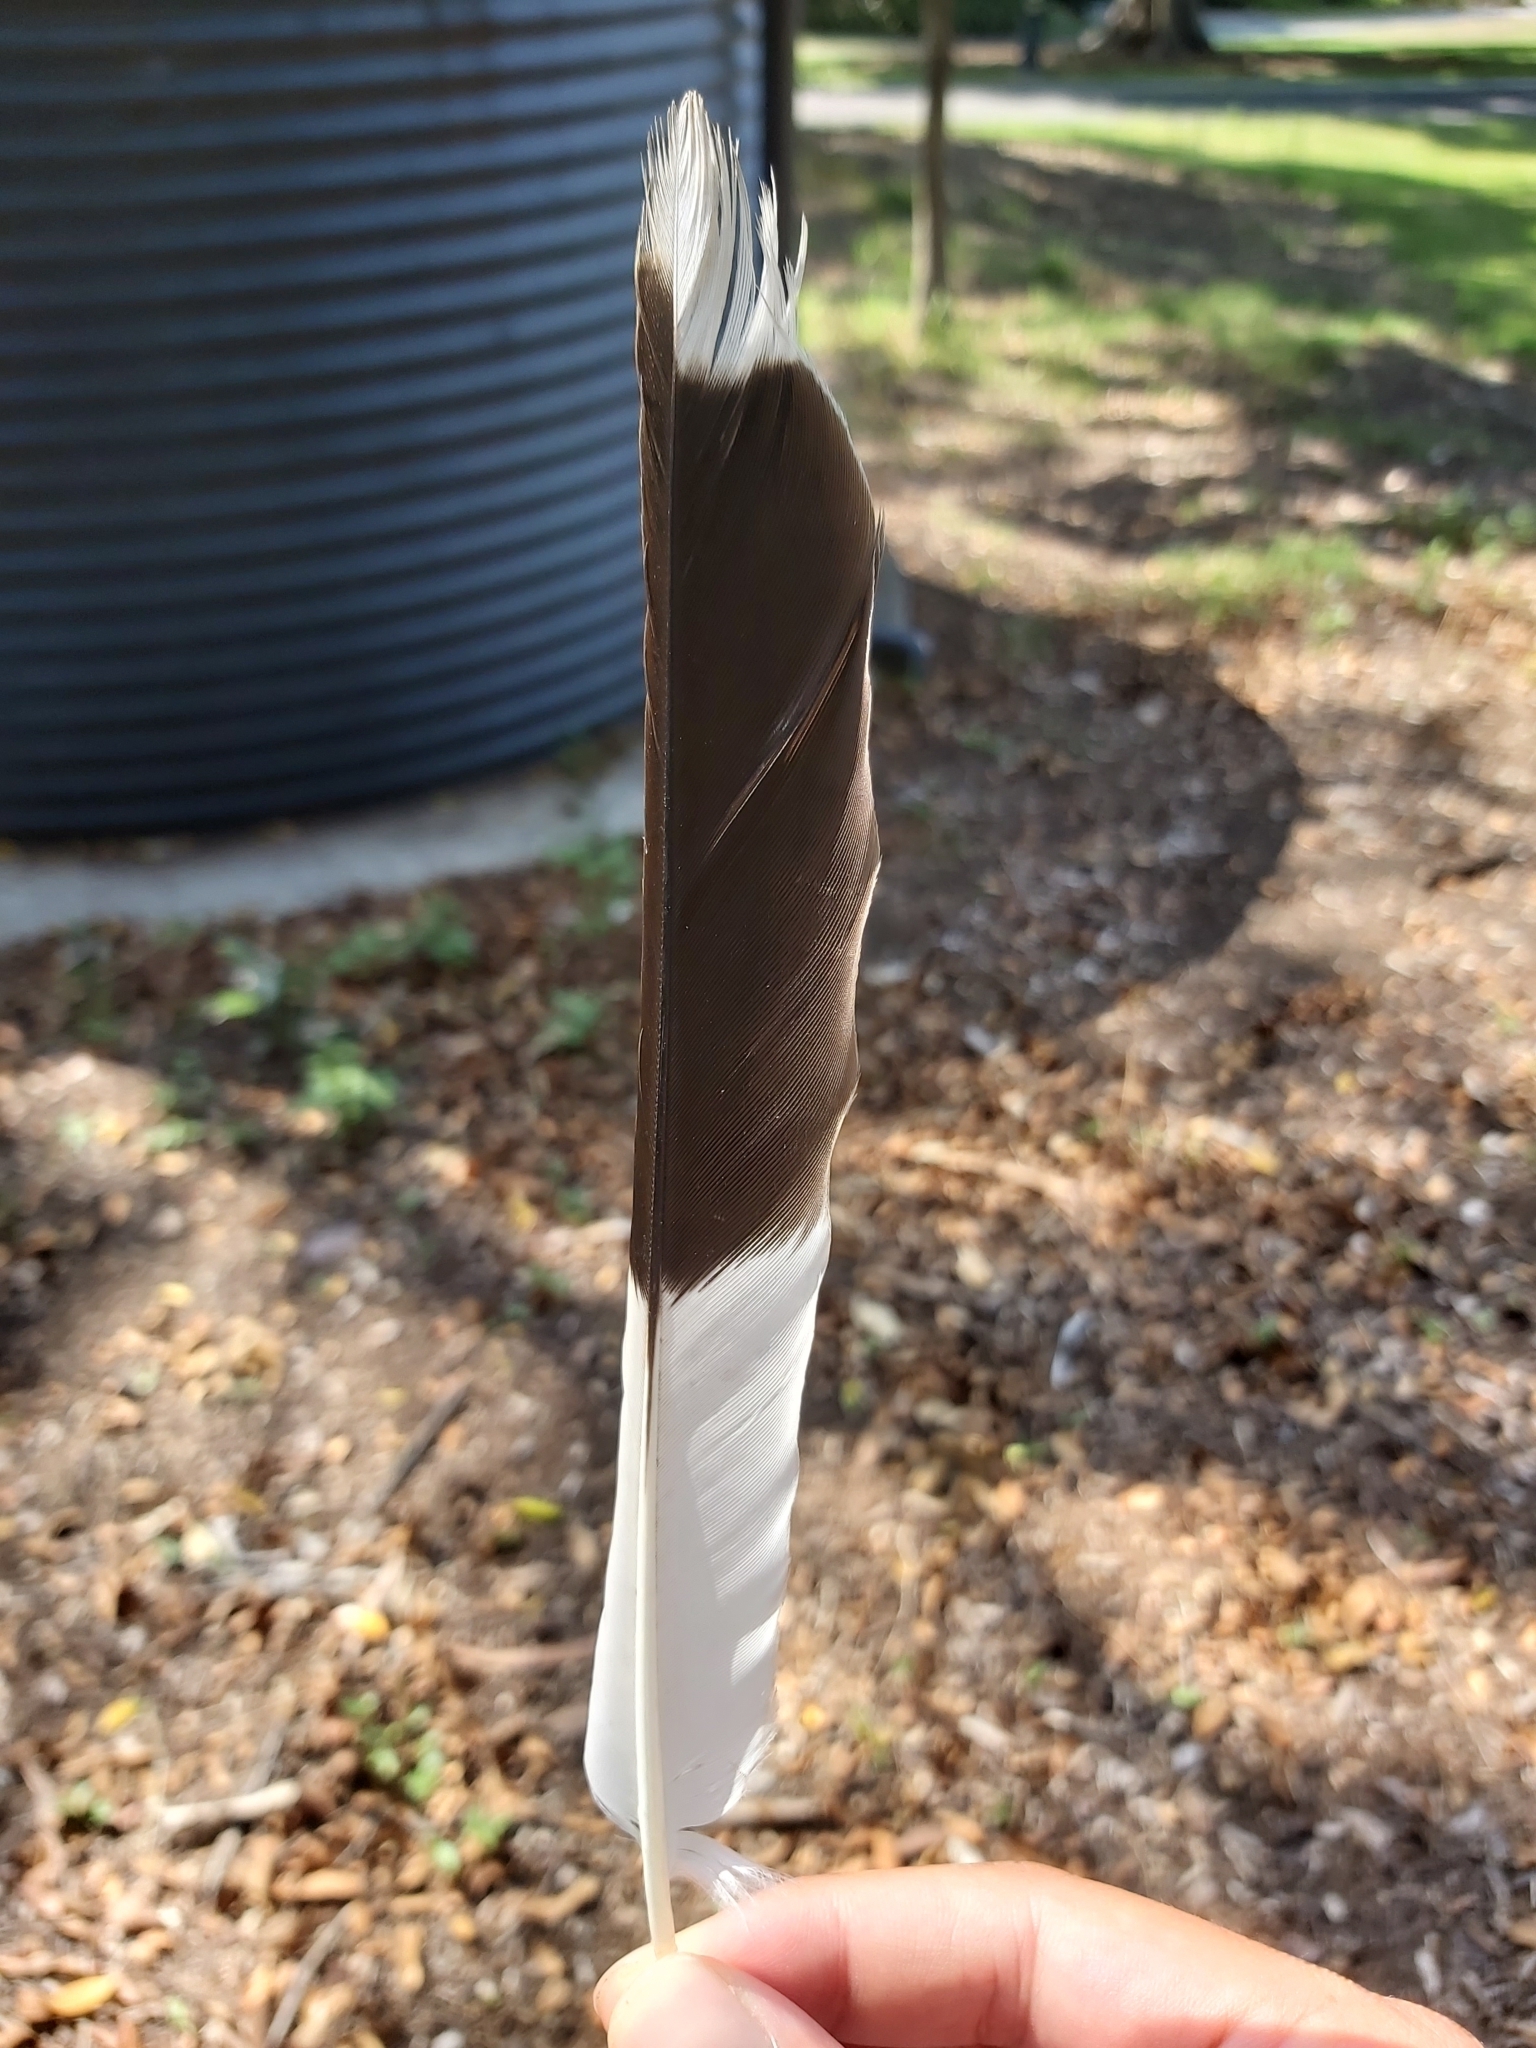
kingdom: Animalia
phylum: Chordata
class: Aves
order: Passeriformes
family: Cracticidae
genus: Strepera
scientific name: Strepera graculina
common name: Pied currawong
